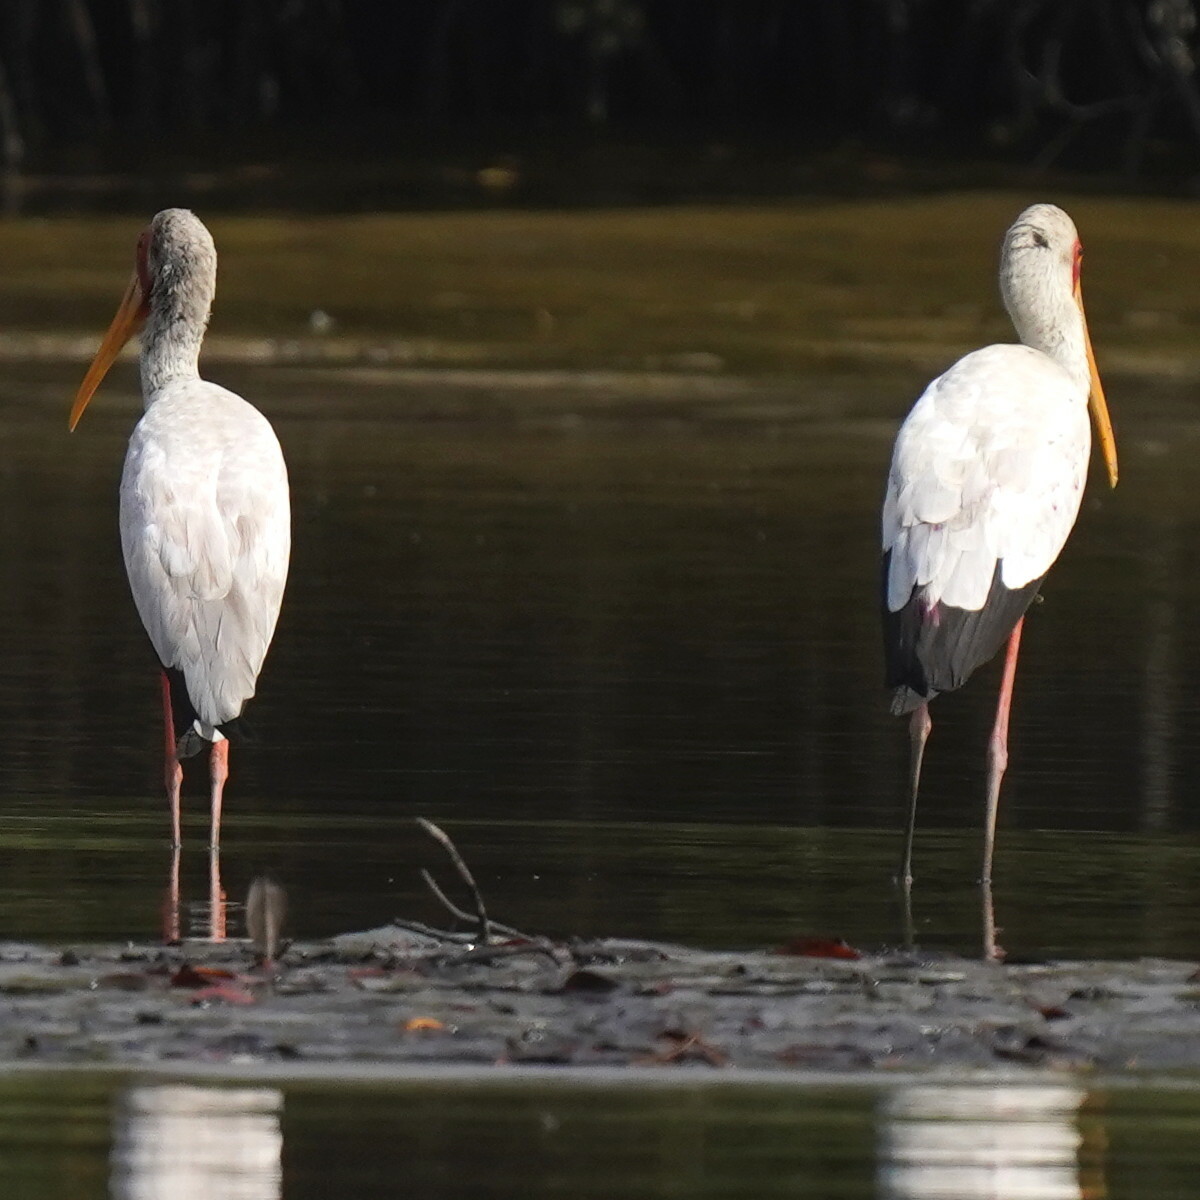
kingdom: Animalia
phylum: Chordata
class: Aves
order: Ciconiiformes
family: Ciconiidae
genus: Mycteria
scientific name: Mycteria ibis
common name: Yellow-billed stork
